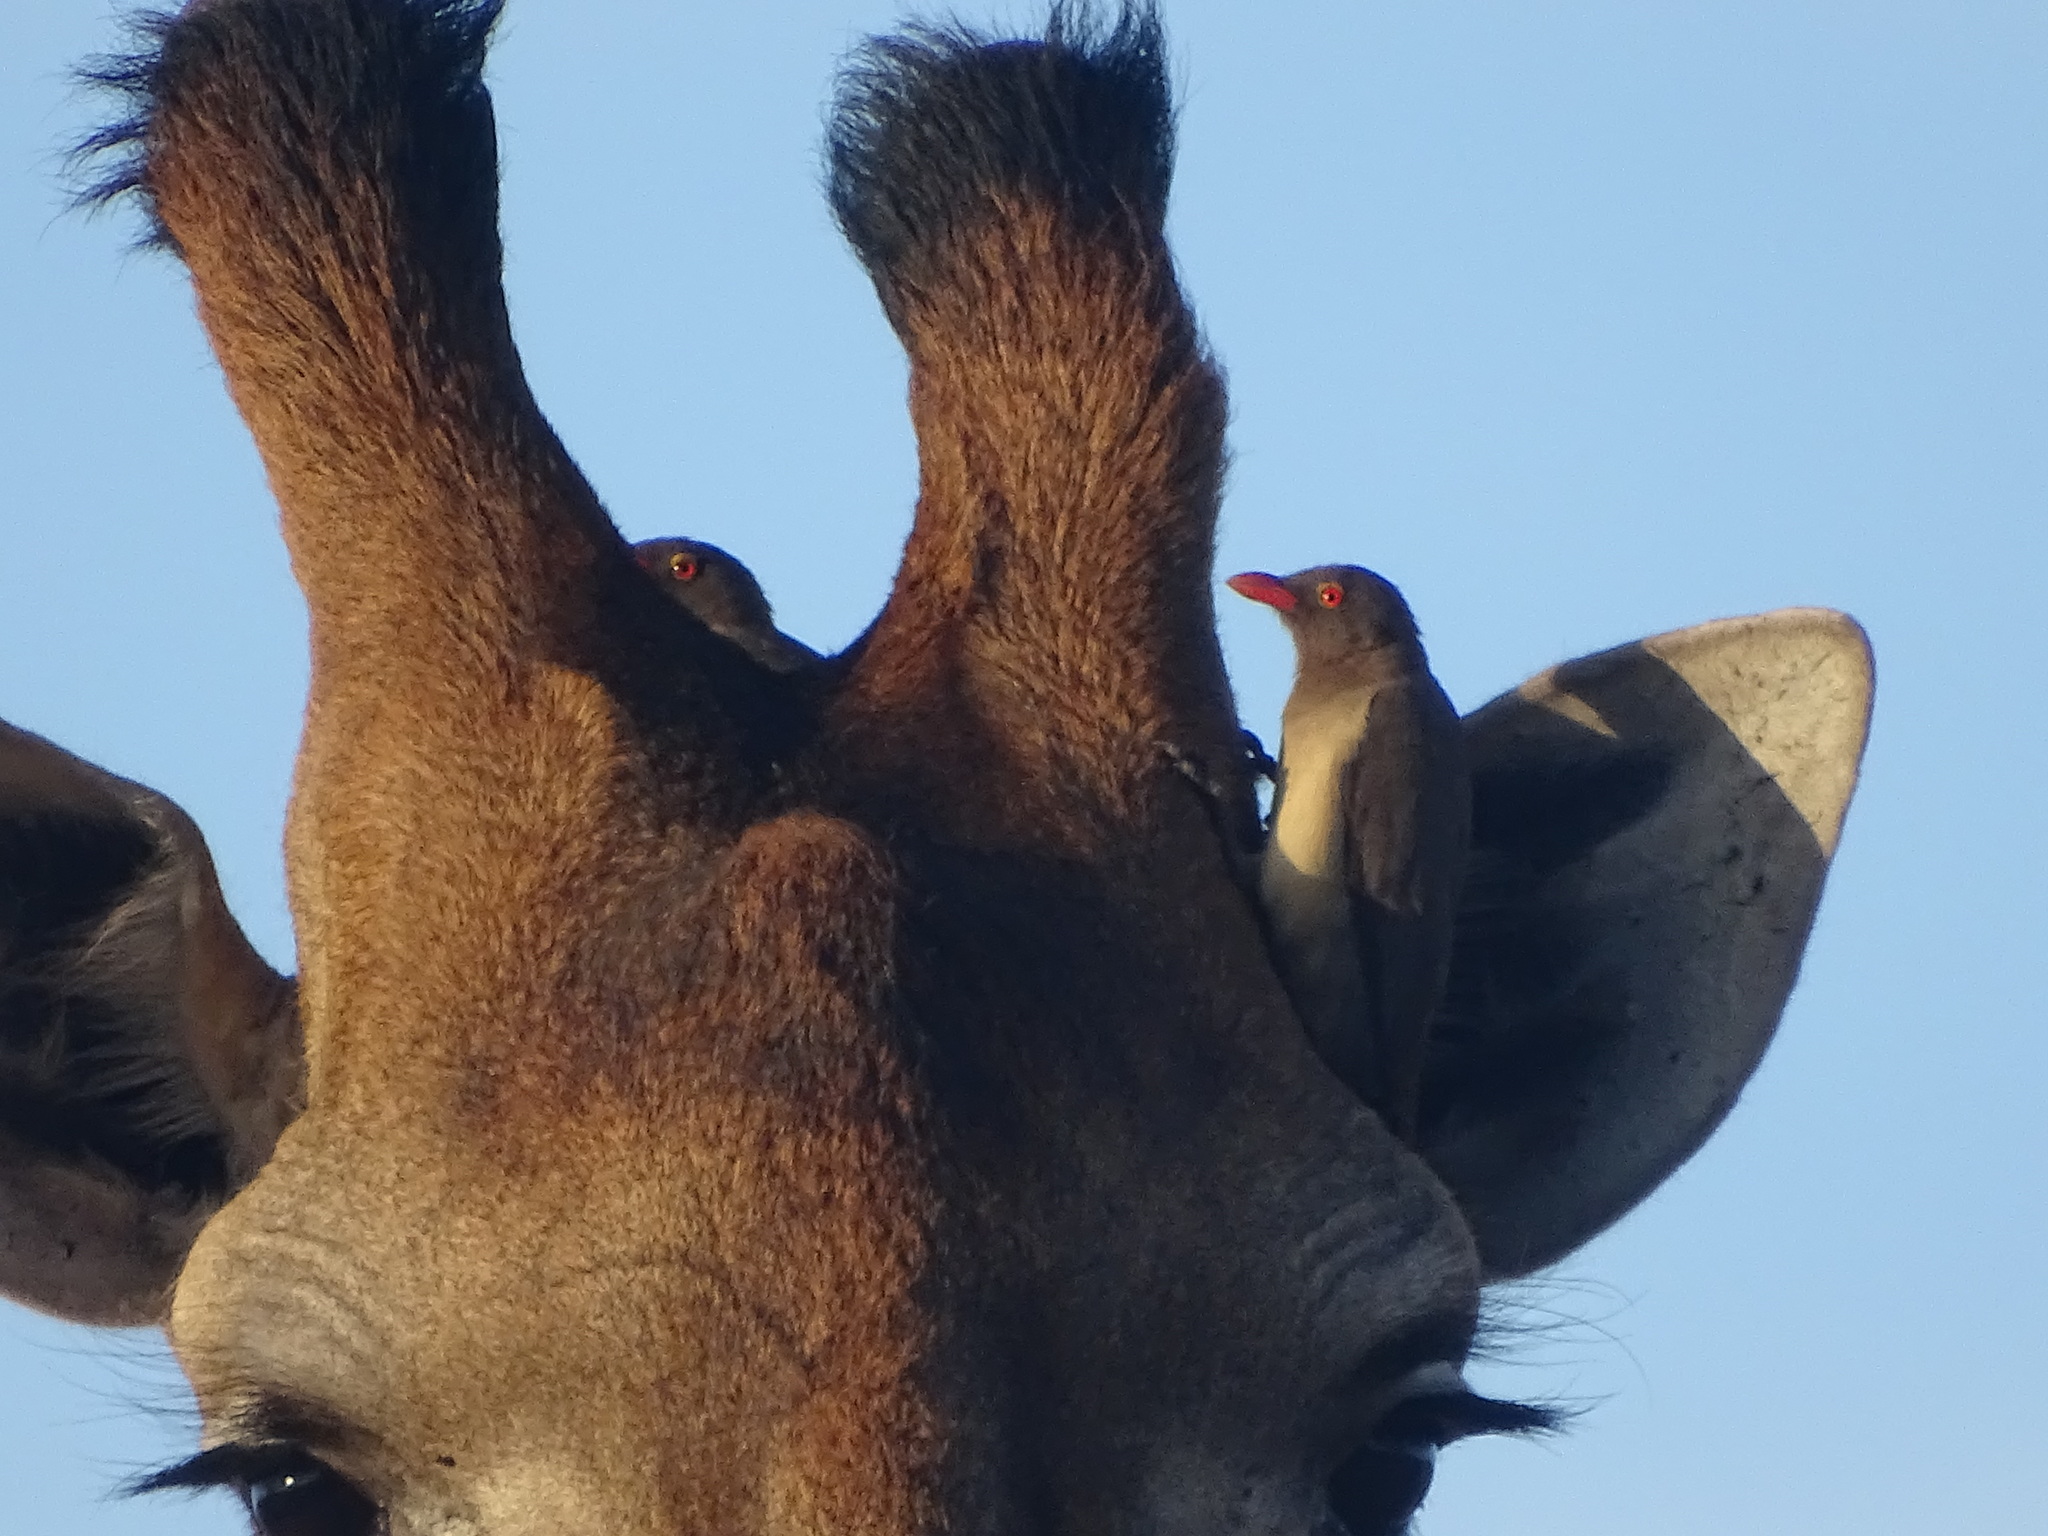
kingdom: Animalia
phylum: Chordata
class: Aves
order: Passeriformes
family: Buphagidae
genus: Buphagus
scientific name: Buphagus erythrorhynchus
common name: Red-billed oxpecker
